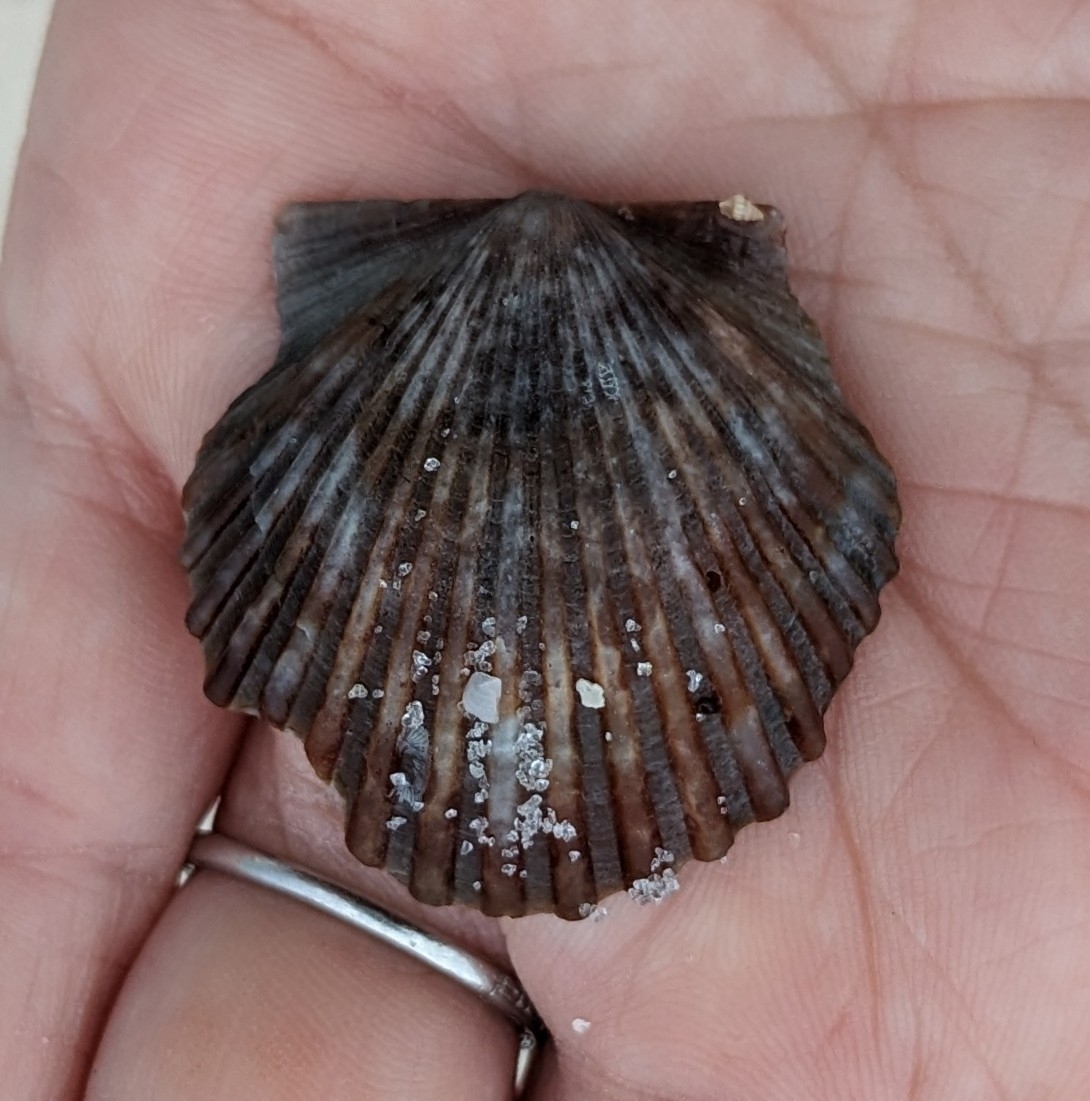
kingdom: Animalia
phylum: Mollusca
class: Bivalvia
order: Pectinida
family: Pectinidae
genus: Argopecten
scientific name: Argopecten irradians
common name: Atlantic bay scallop
